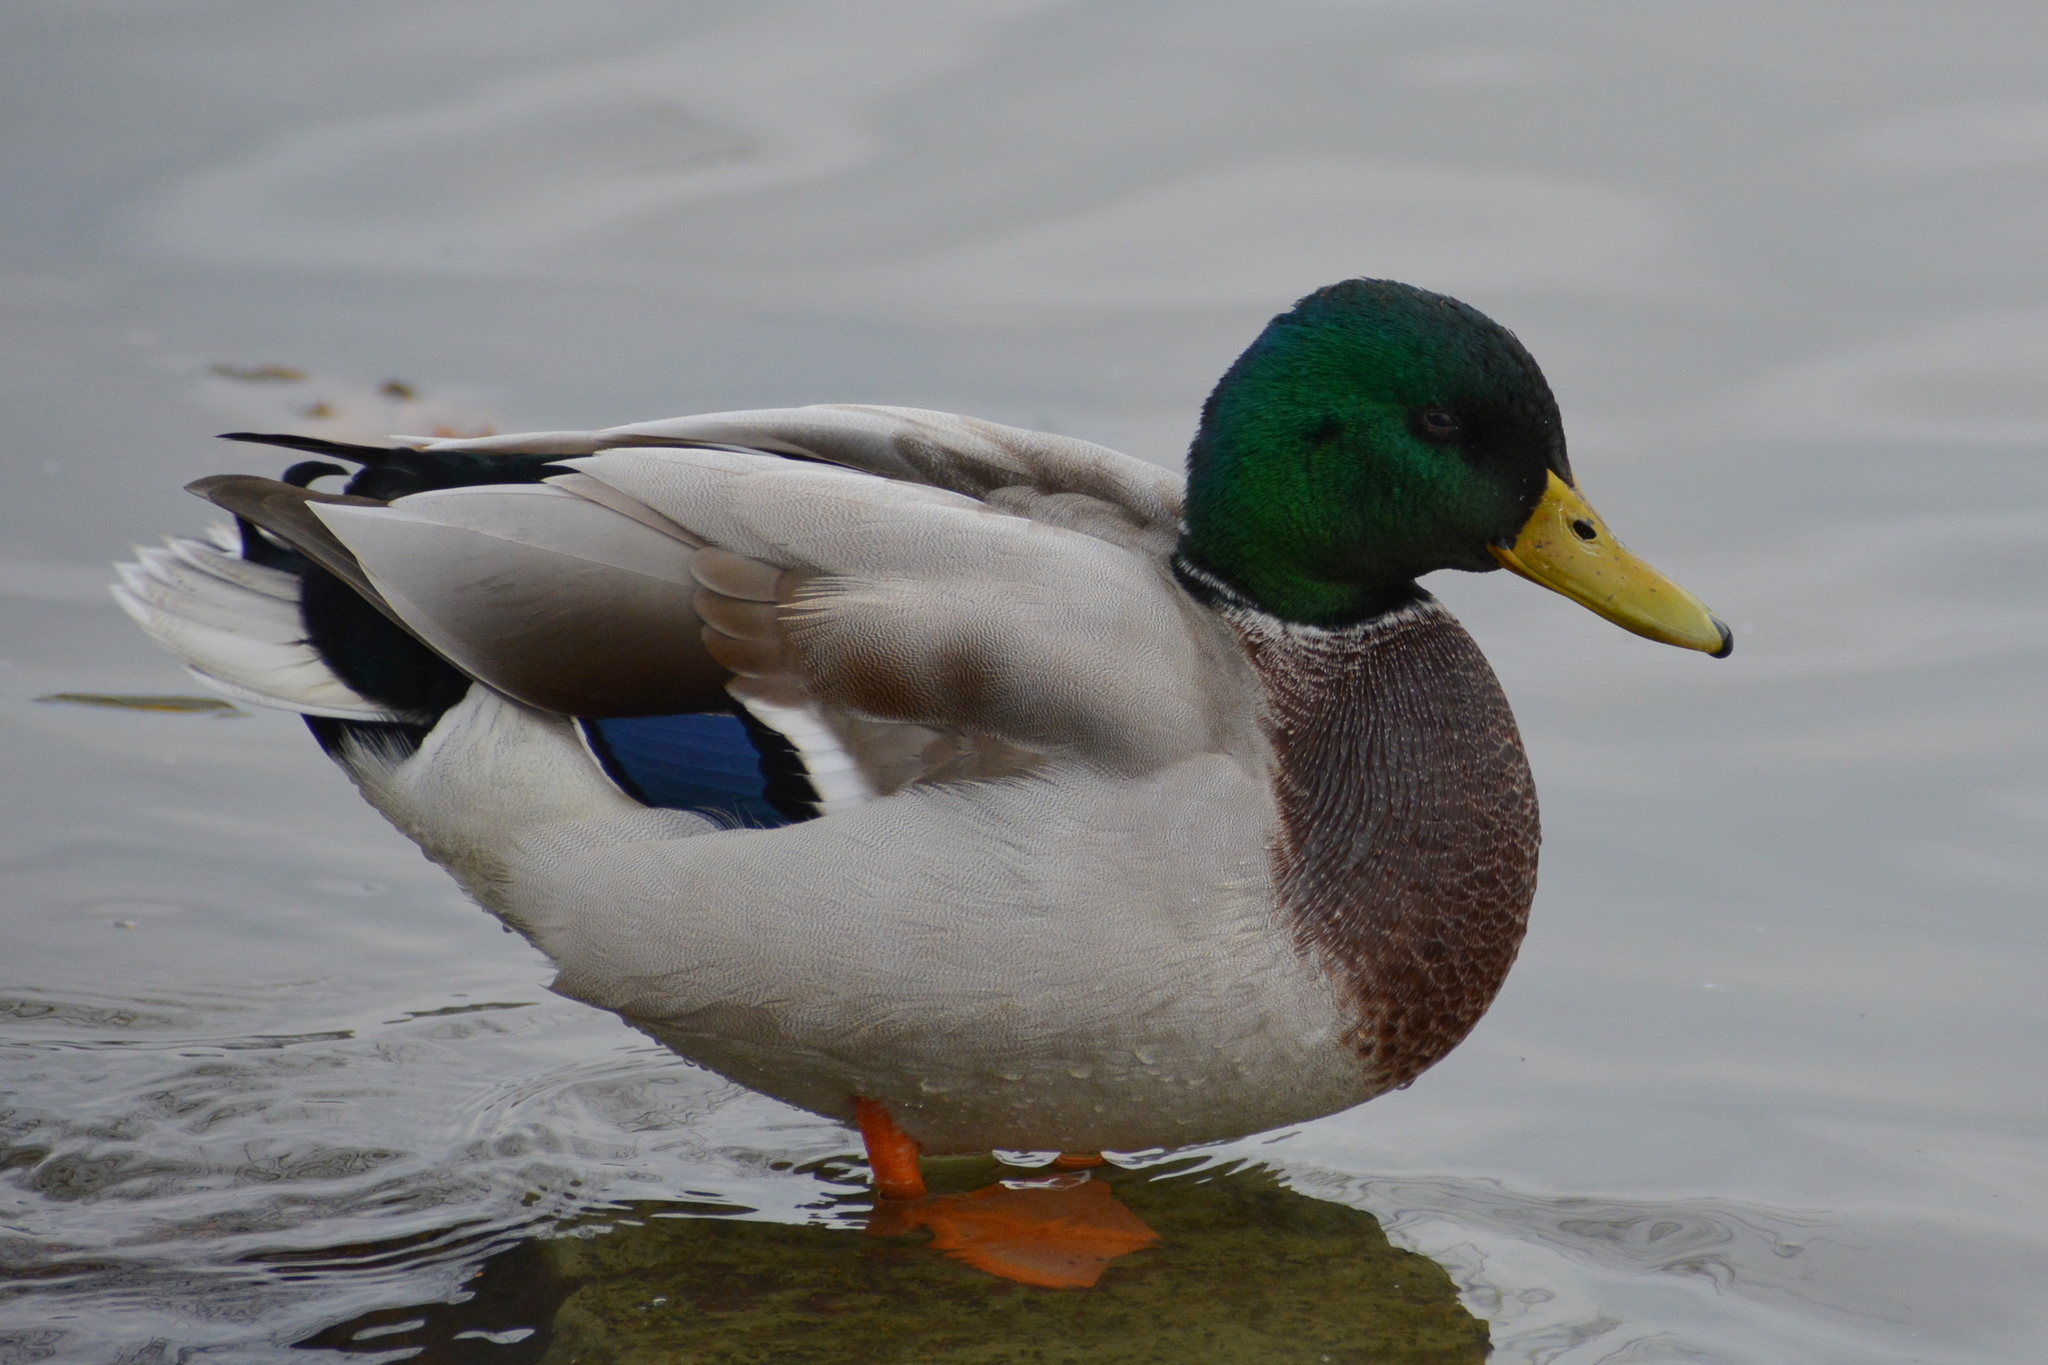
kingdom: Animalia
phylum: Chordata
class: Aves
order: Anseriformes
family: Anatidae
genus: Anas
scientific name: Anas platyrhynchos
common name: Mallard
